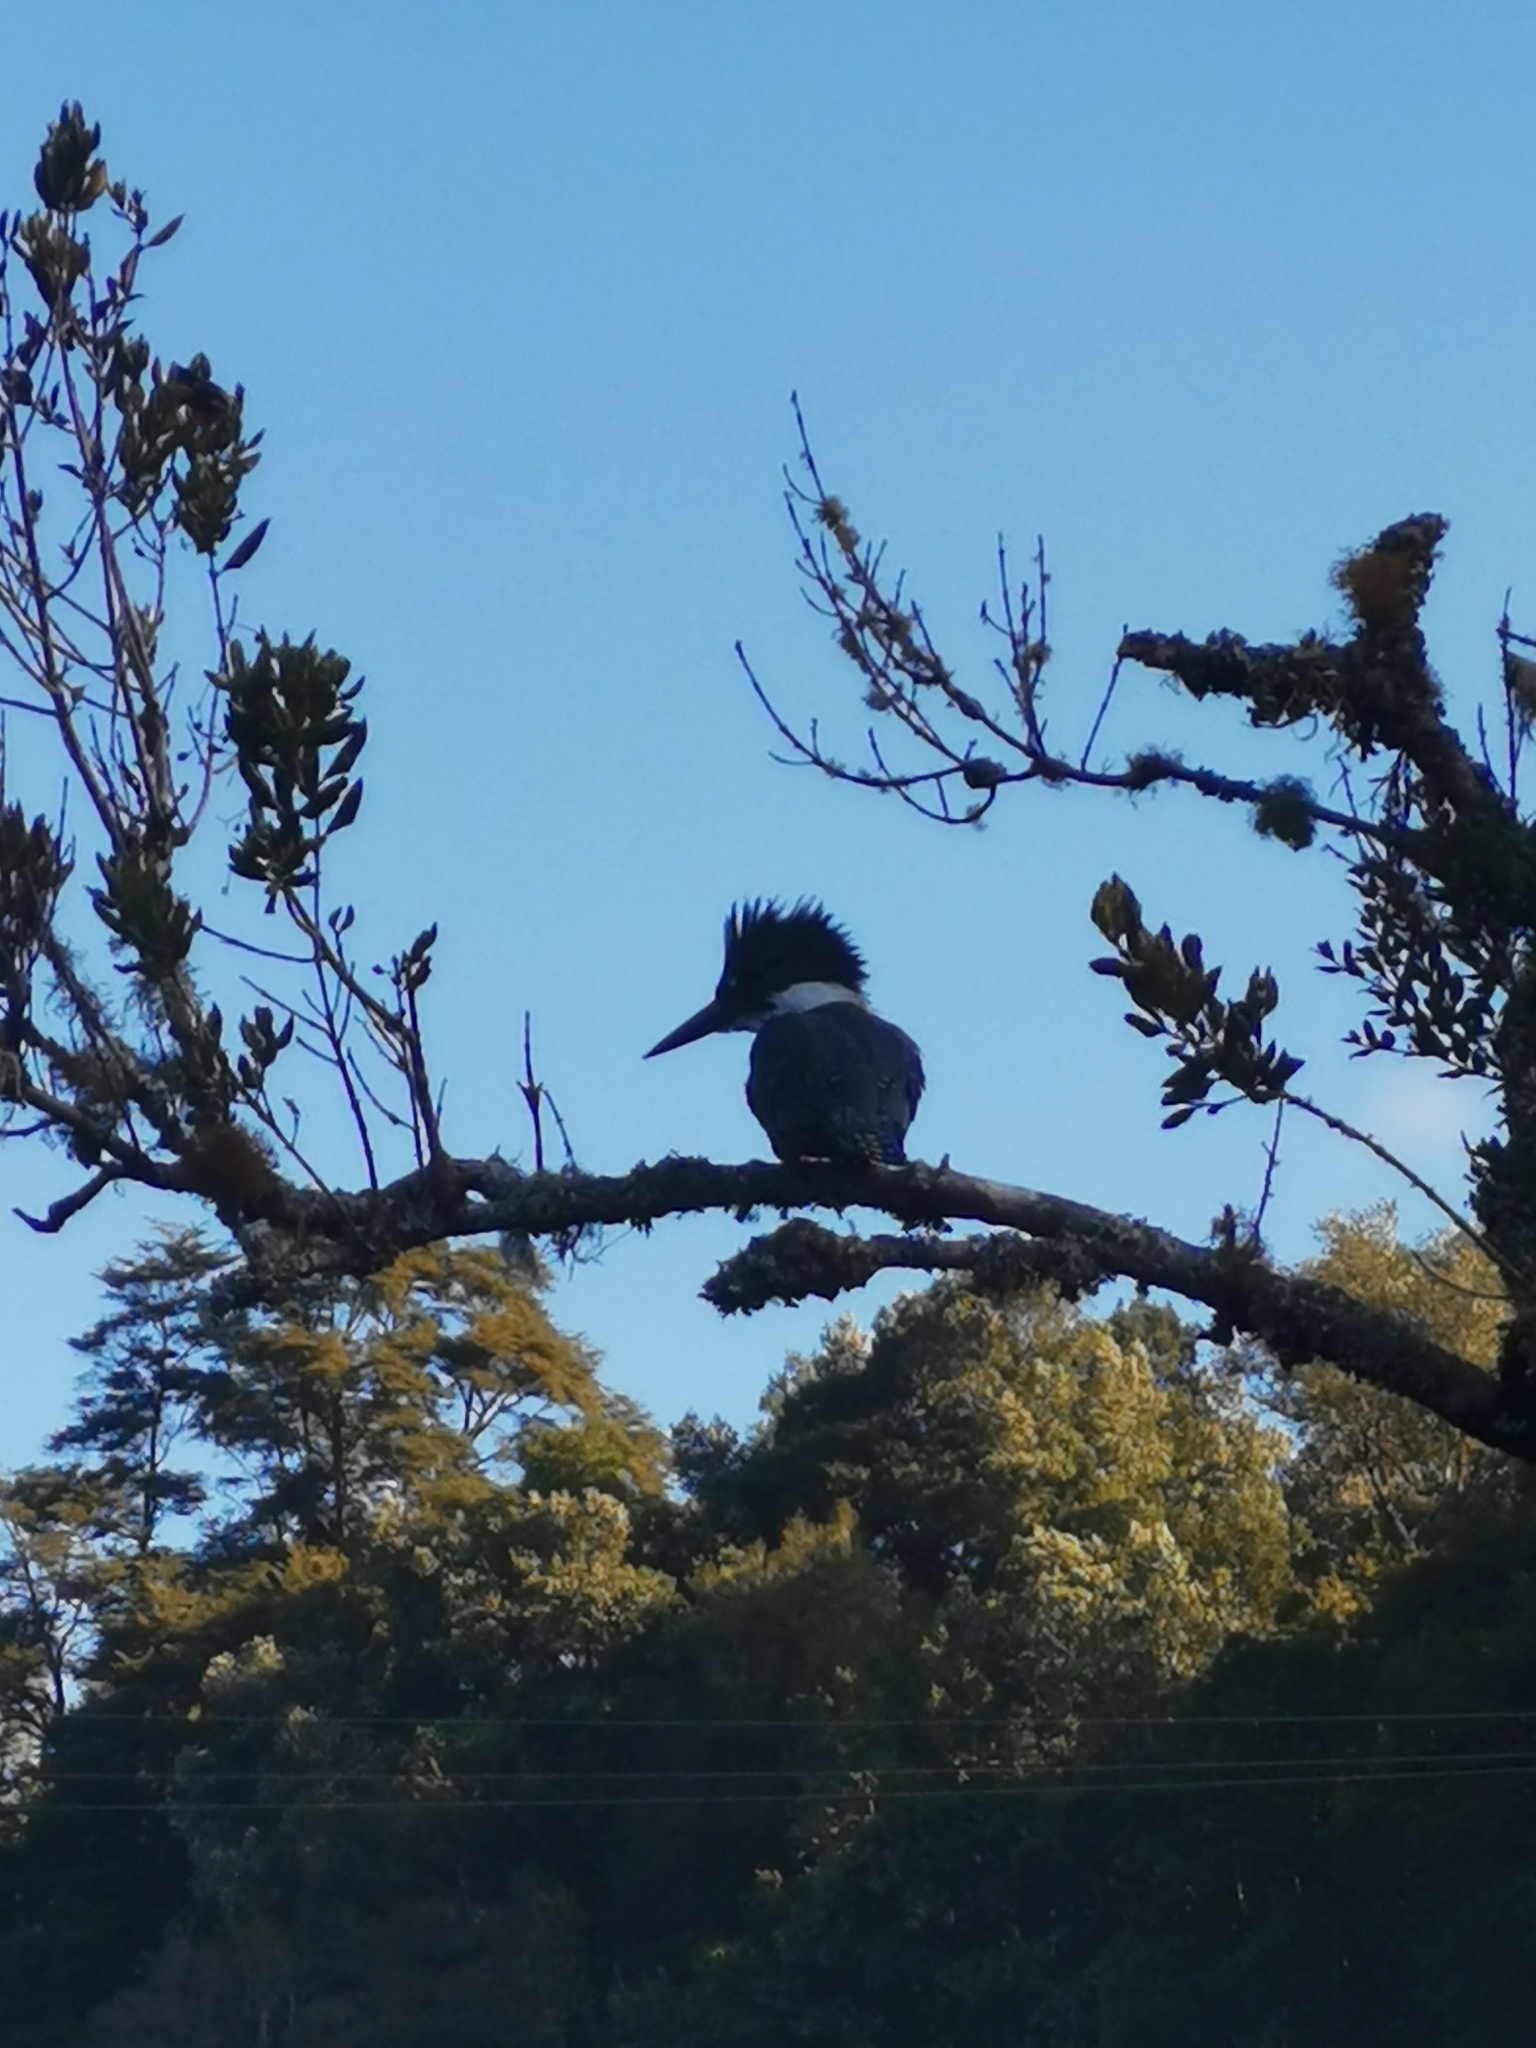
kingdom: Animalia
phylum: Chordata
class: Aves
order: Coraciiformes
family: Alcedinidae
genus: Megaceryle
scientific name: Megaceryle torquata
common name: Ringed kingfisher
